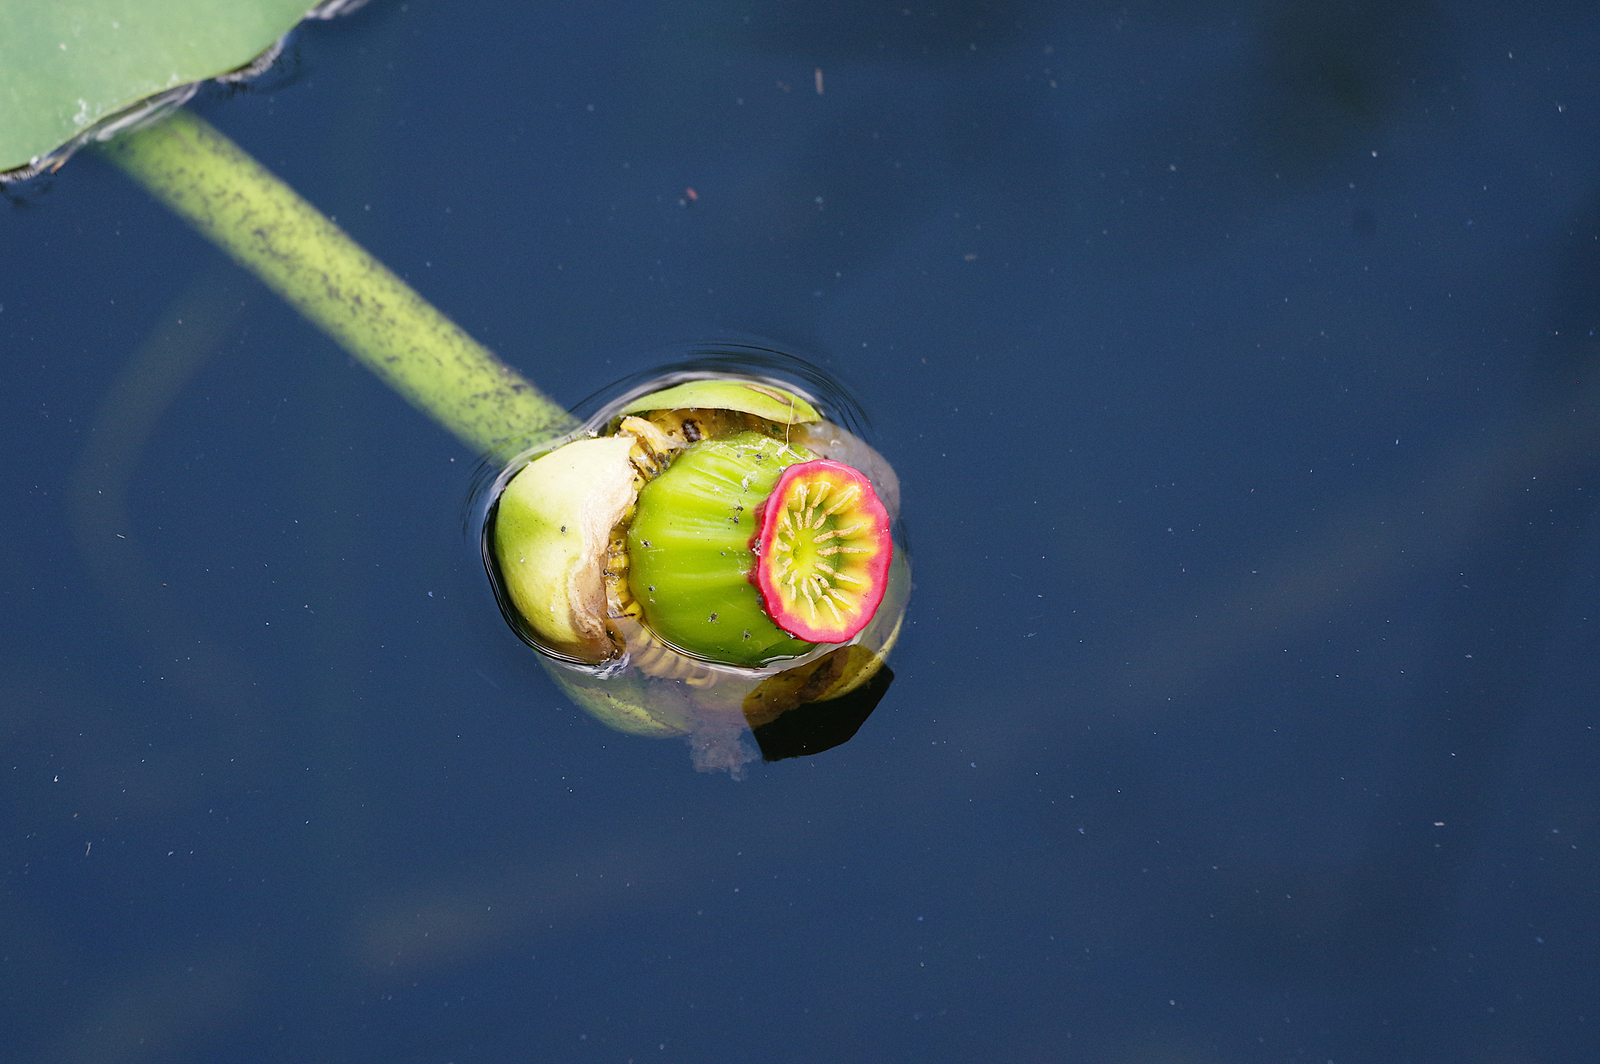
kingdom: Plantae
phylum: Tracheophyta
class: Magnoliopsida
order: Nymphaeales
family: Nymphaeaceae
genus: Nuphar
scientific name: Nuphar advena
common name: Spatter-dock
